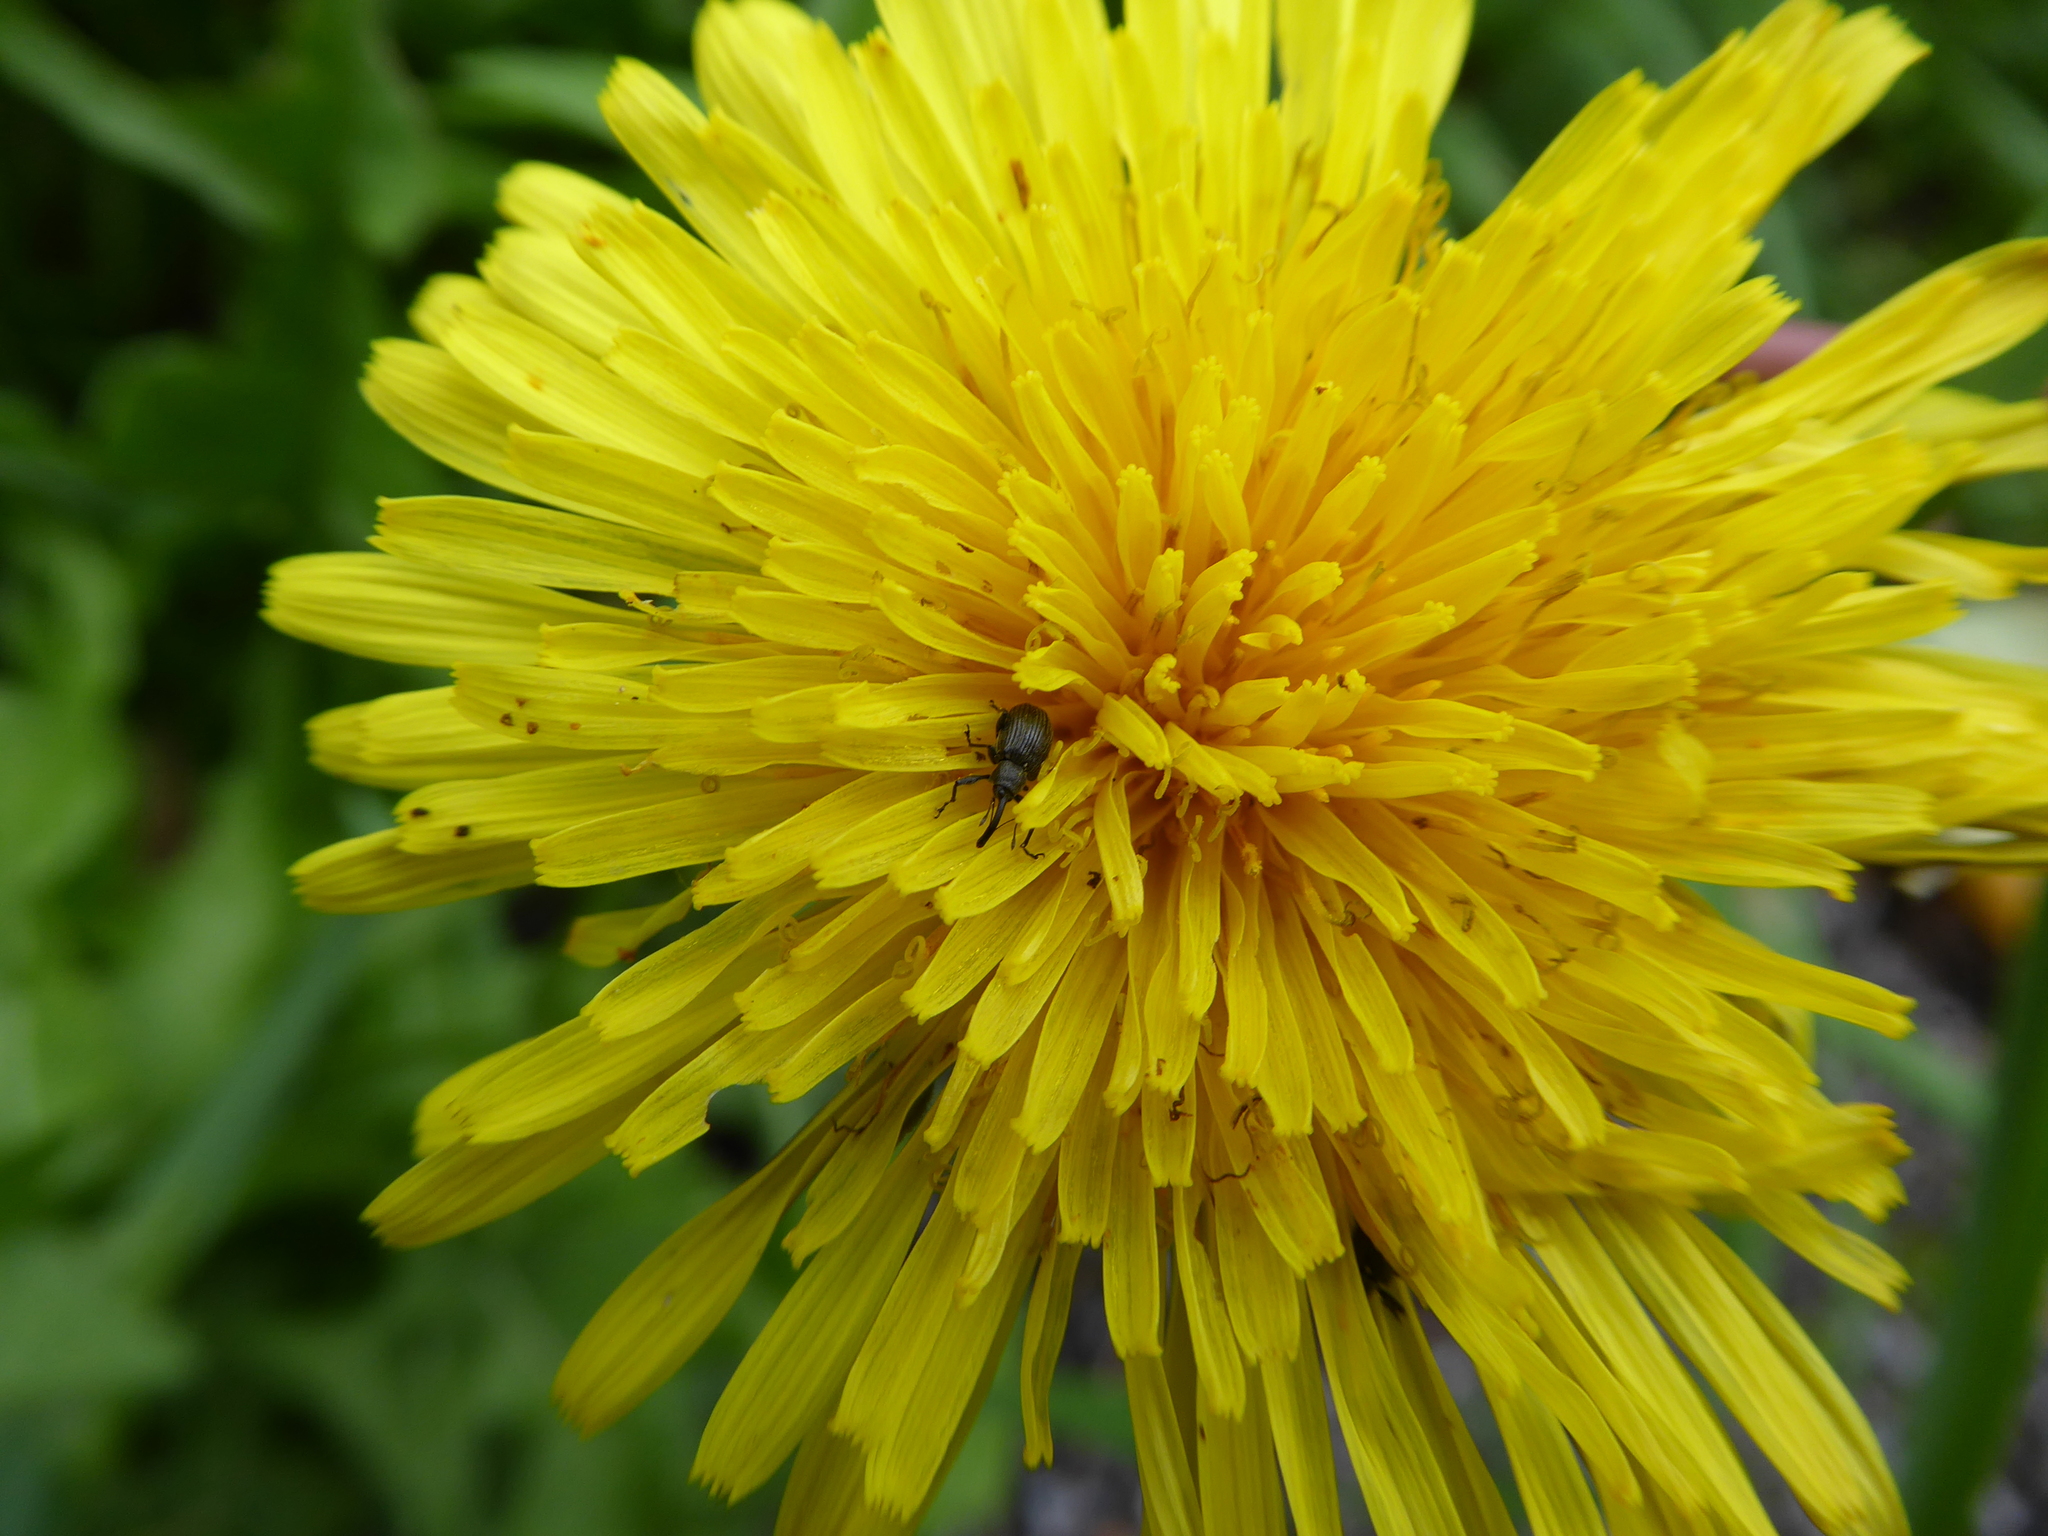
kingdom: Animalia
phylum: Arthropoda
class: Insecta
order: Coleoptera
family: Curculionidae
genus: Anthonomus
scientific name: Anthonomus rubi
